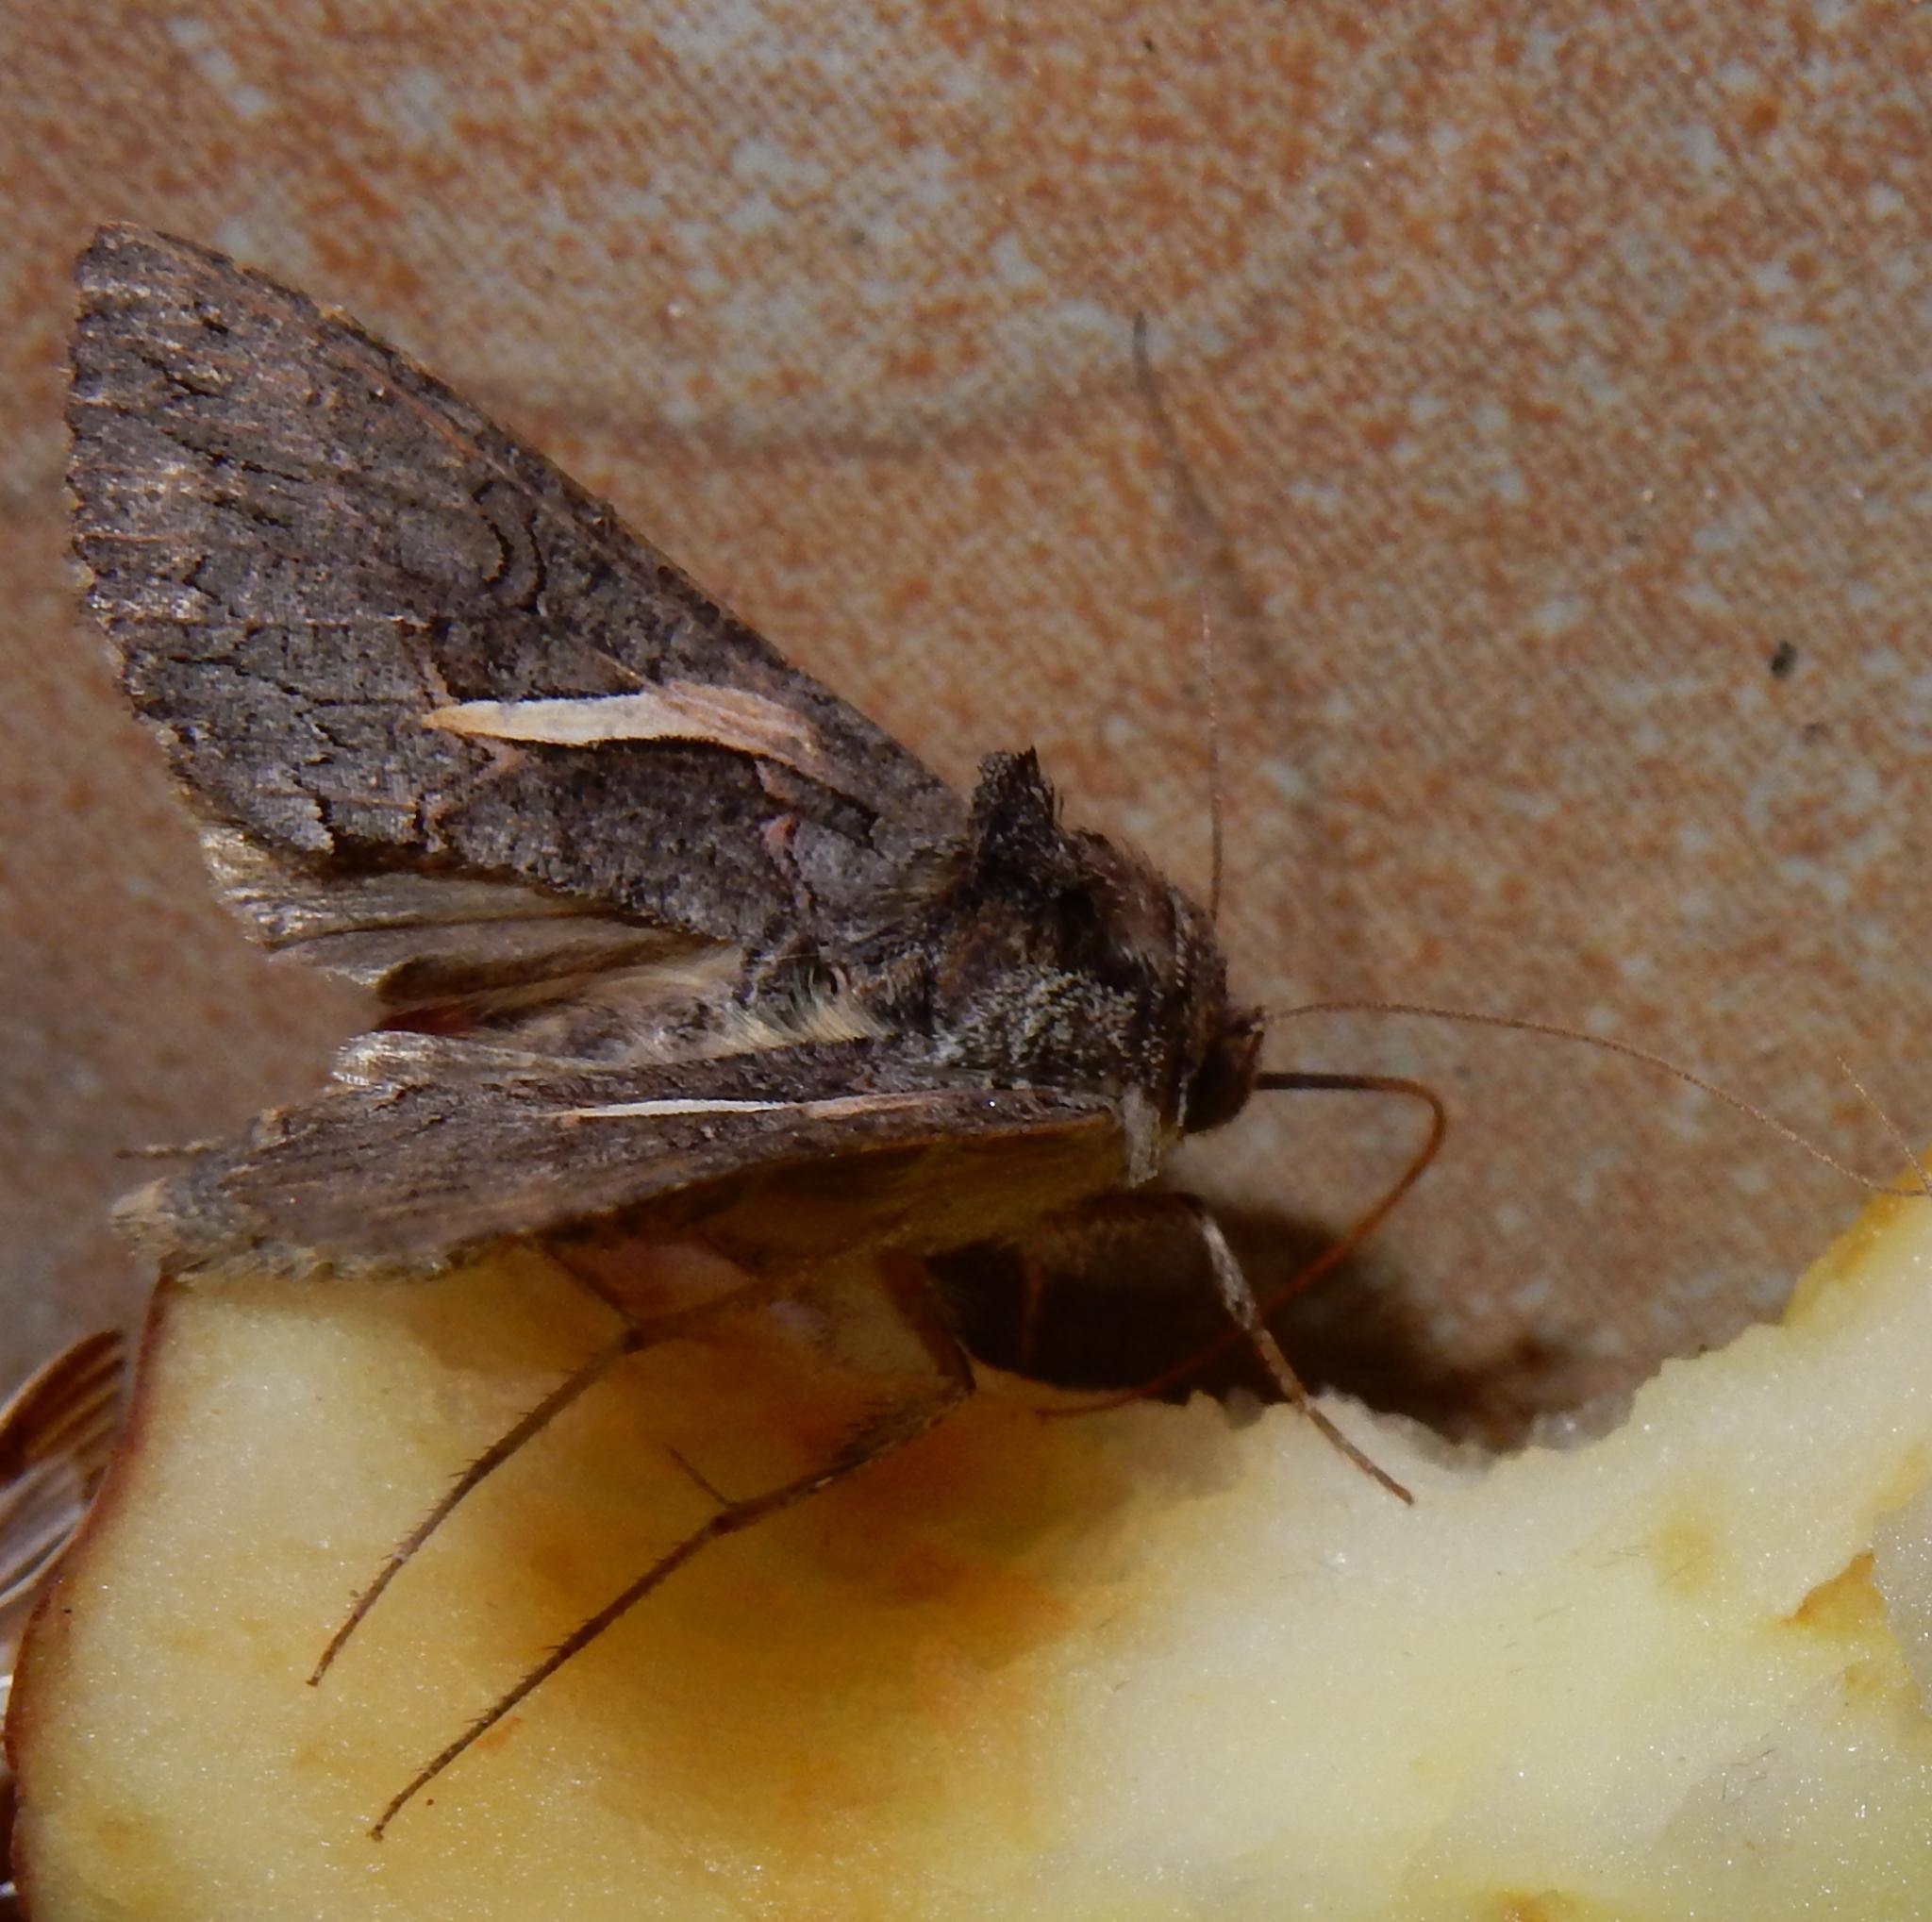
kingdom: Animalia
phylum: Arthropoda
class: Insecta
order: Lepidoptera
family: Noctuidae
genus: Vittaplusia
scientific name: Vittaplusia vittata
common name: Streaked plusia
